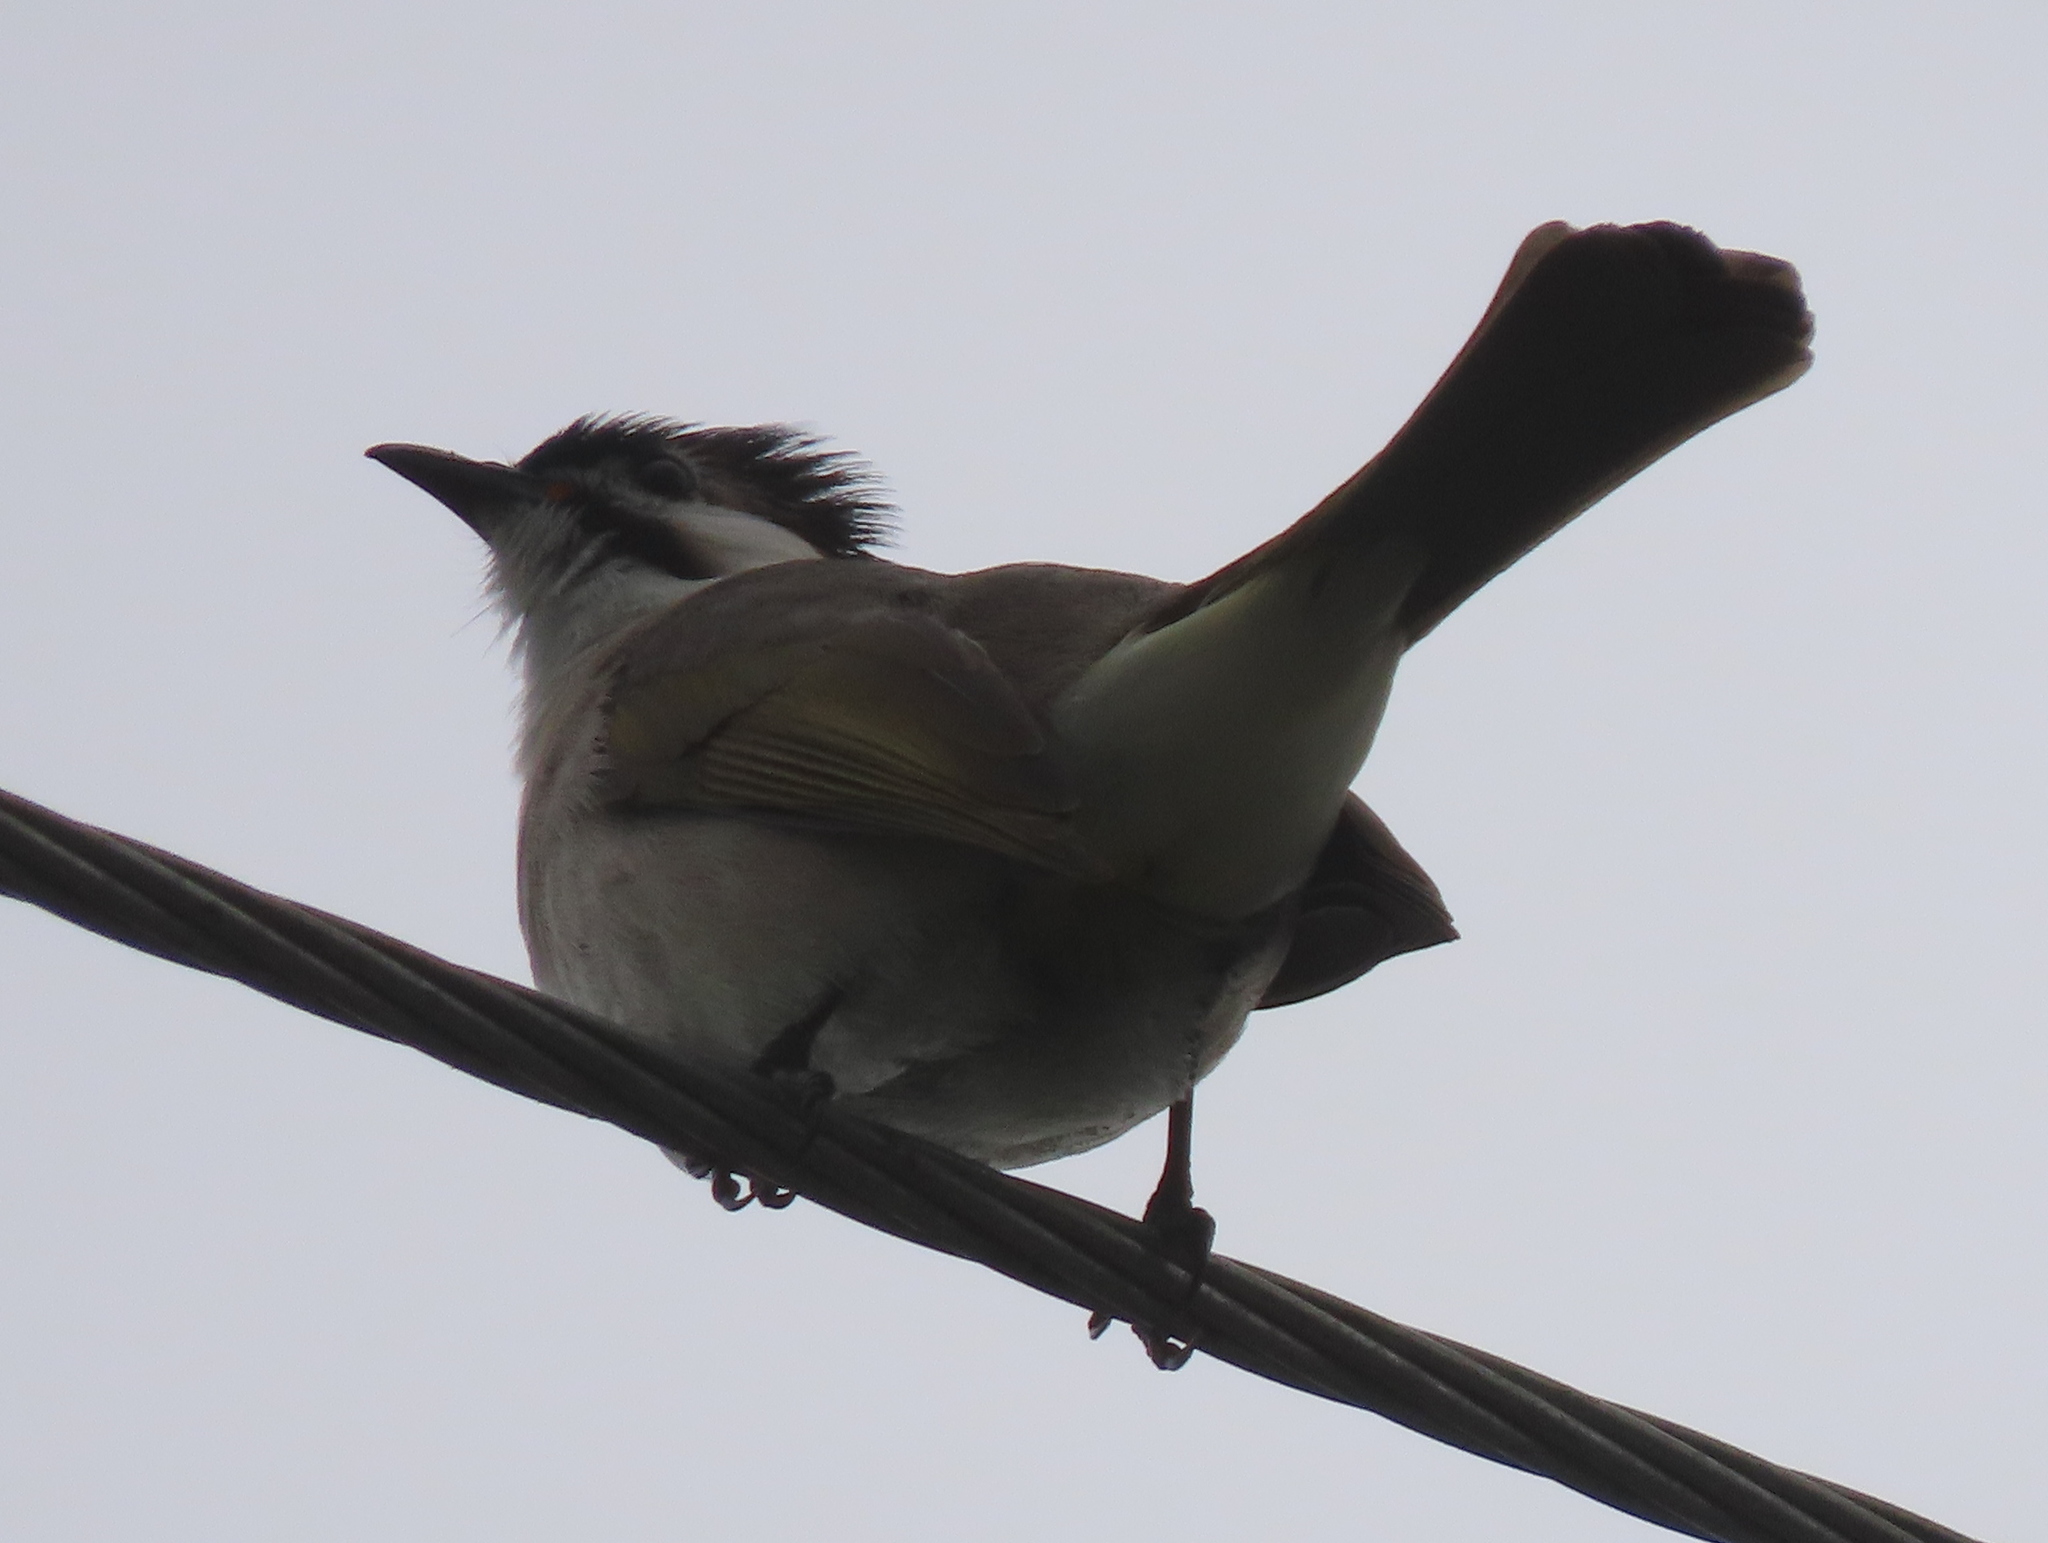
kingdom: Animalia
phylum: Chordata
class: Aves
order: Passeriformes
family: Pycnonotidae
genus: Pycnonotus
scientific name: Pycnonotus taivanus
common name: Styan's bulbul
